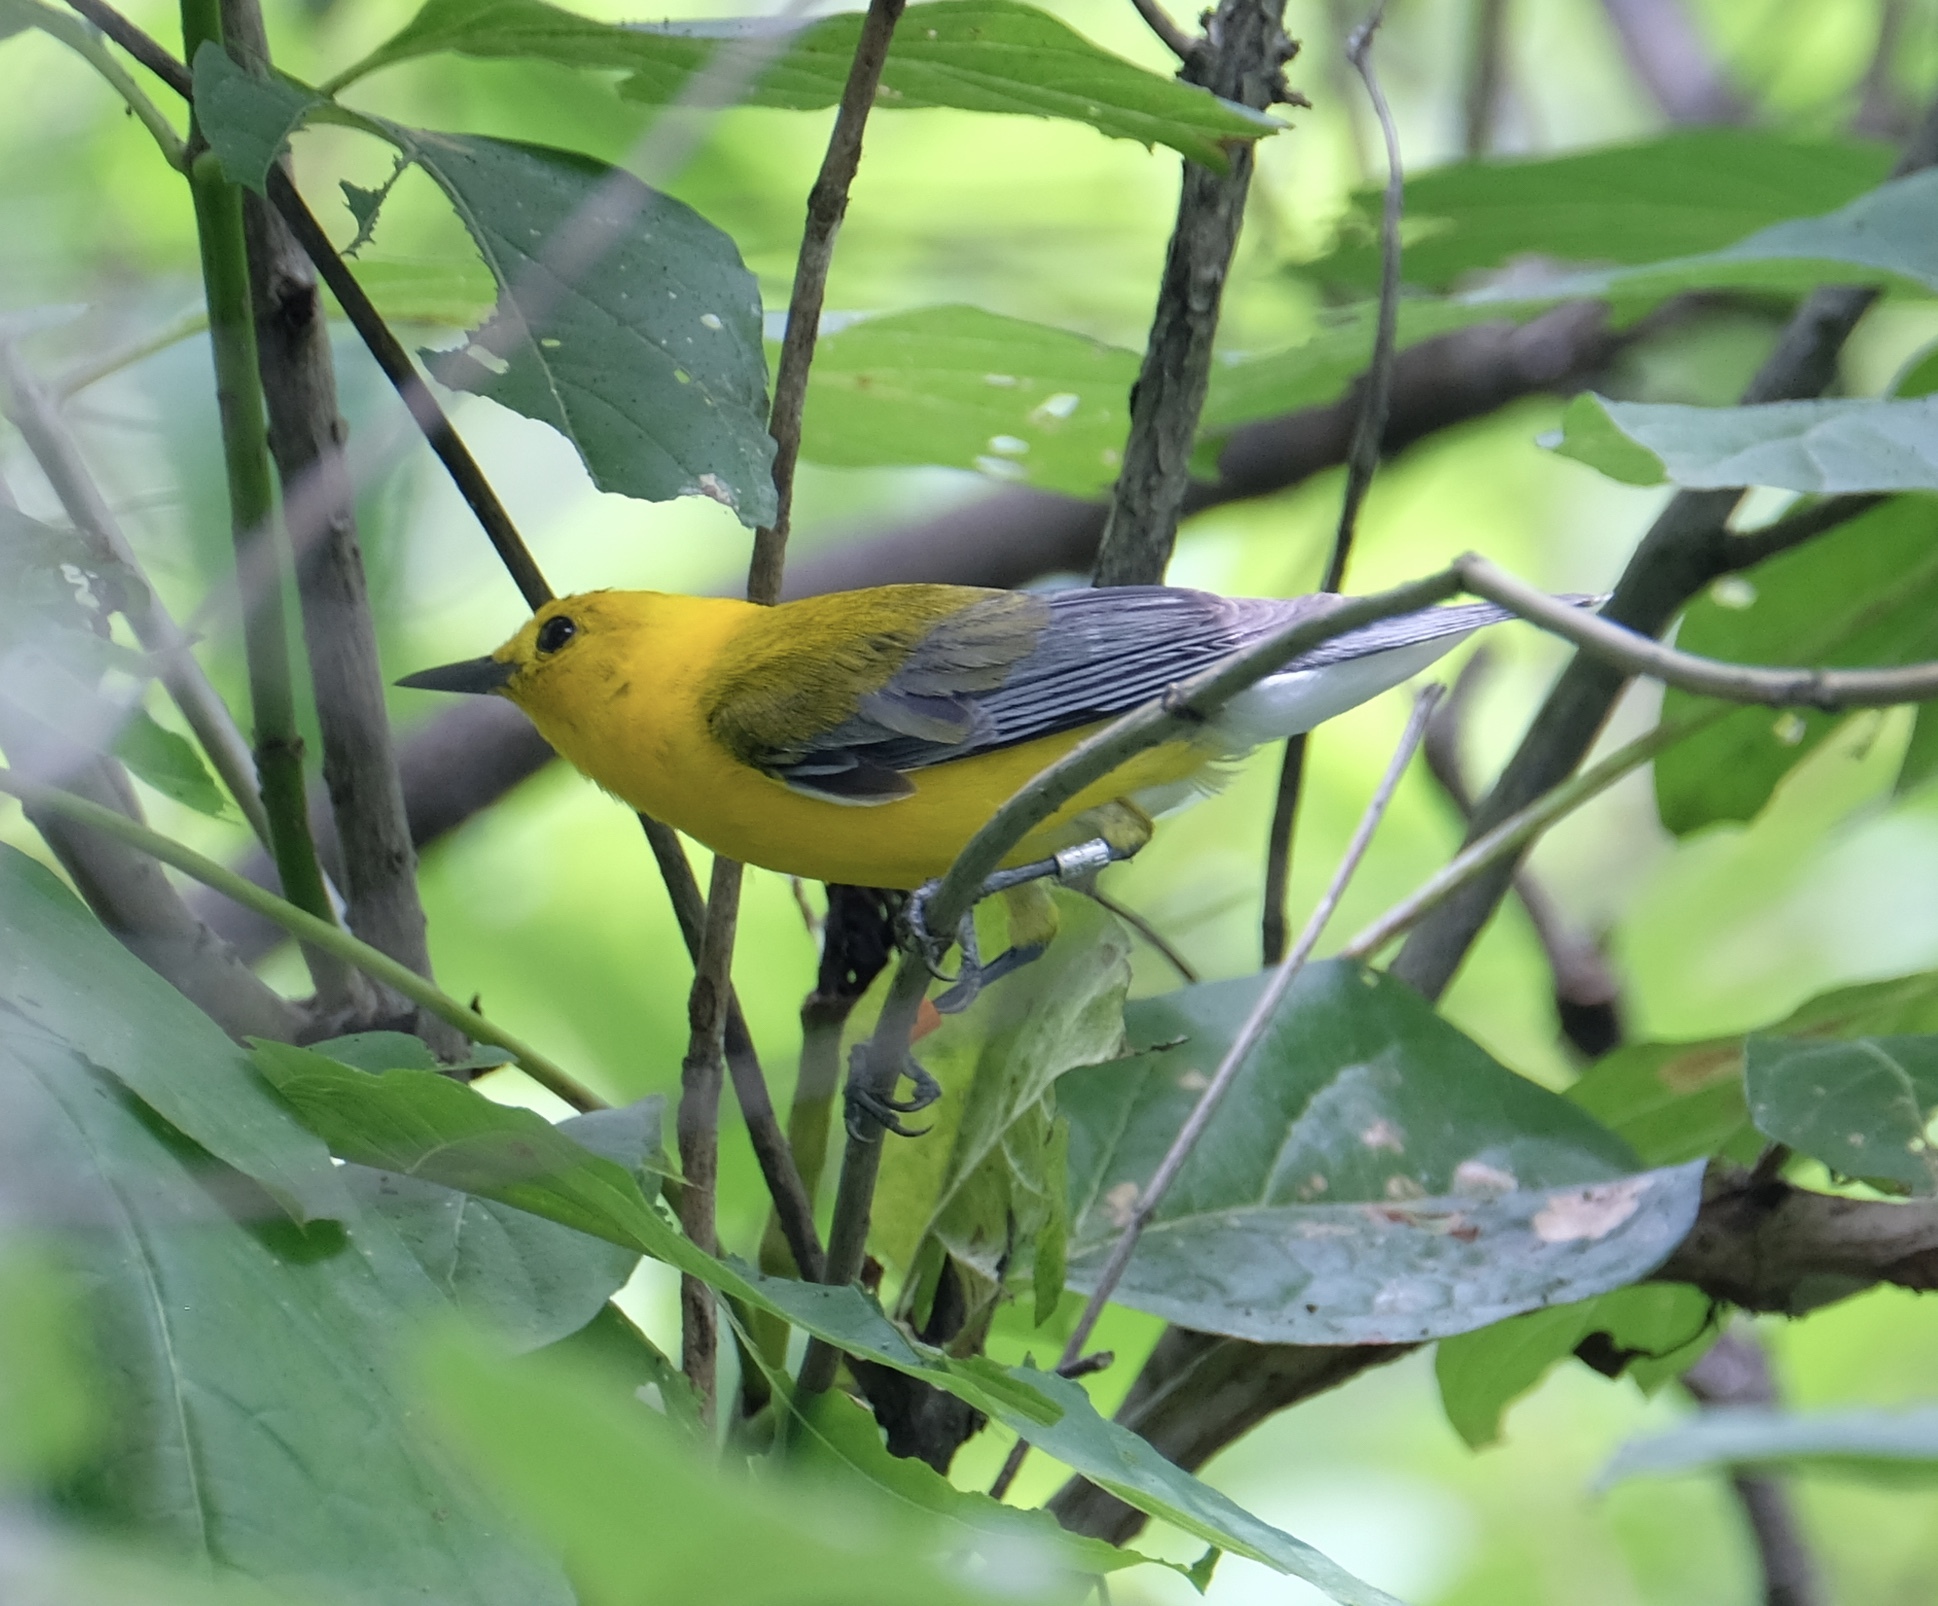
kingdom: Animalia
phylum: Chordata
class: Aves
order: Passeriformes
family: Parulidae
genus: Protonotaria
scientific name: Protonotaria citrea
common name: Prothonotary warbler
